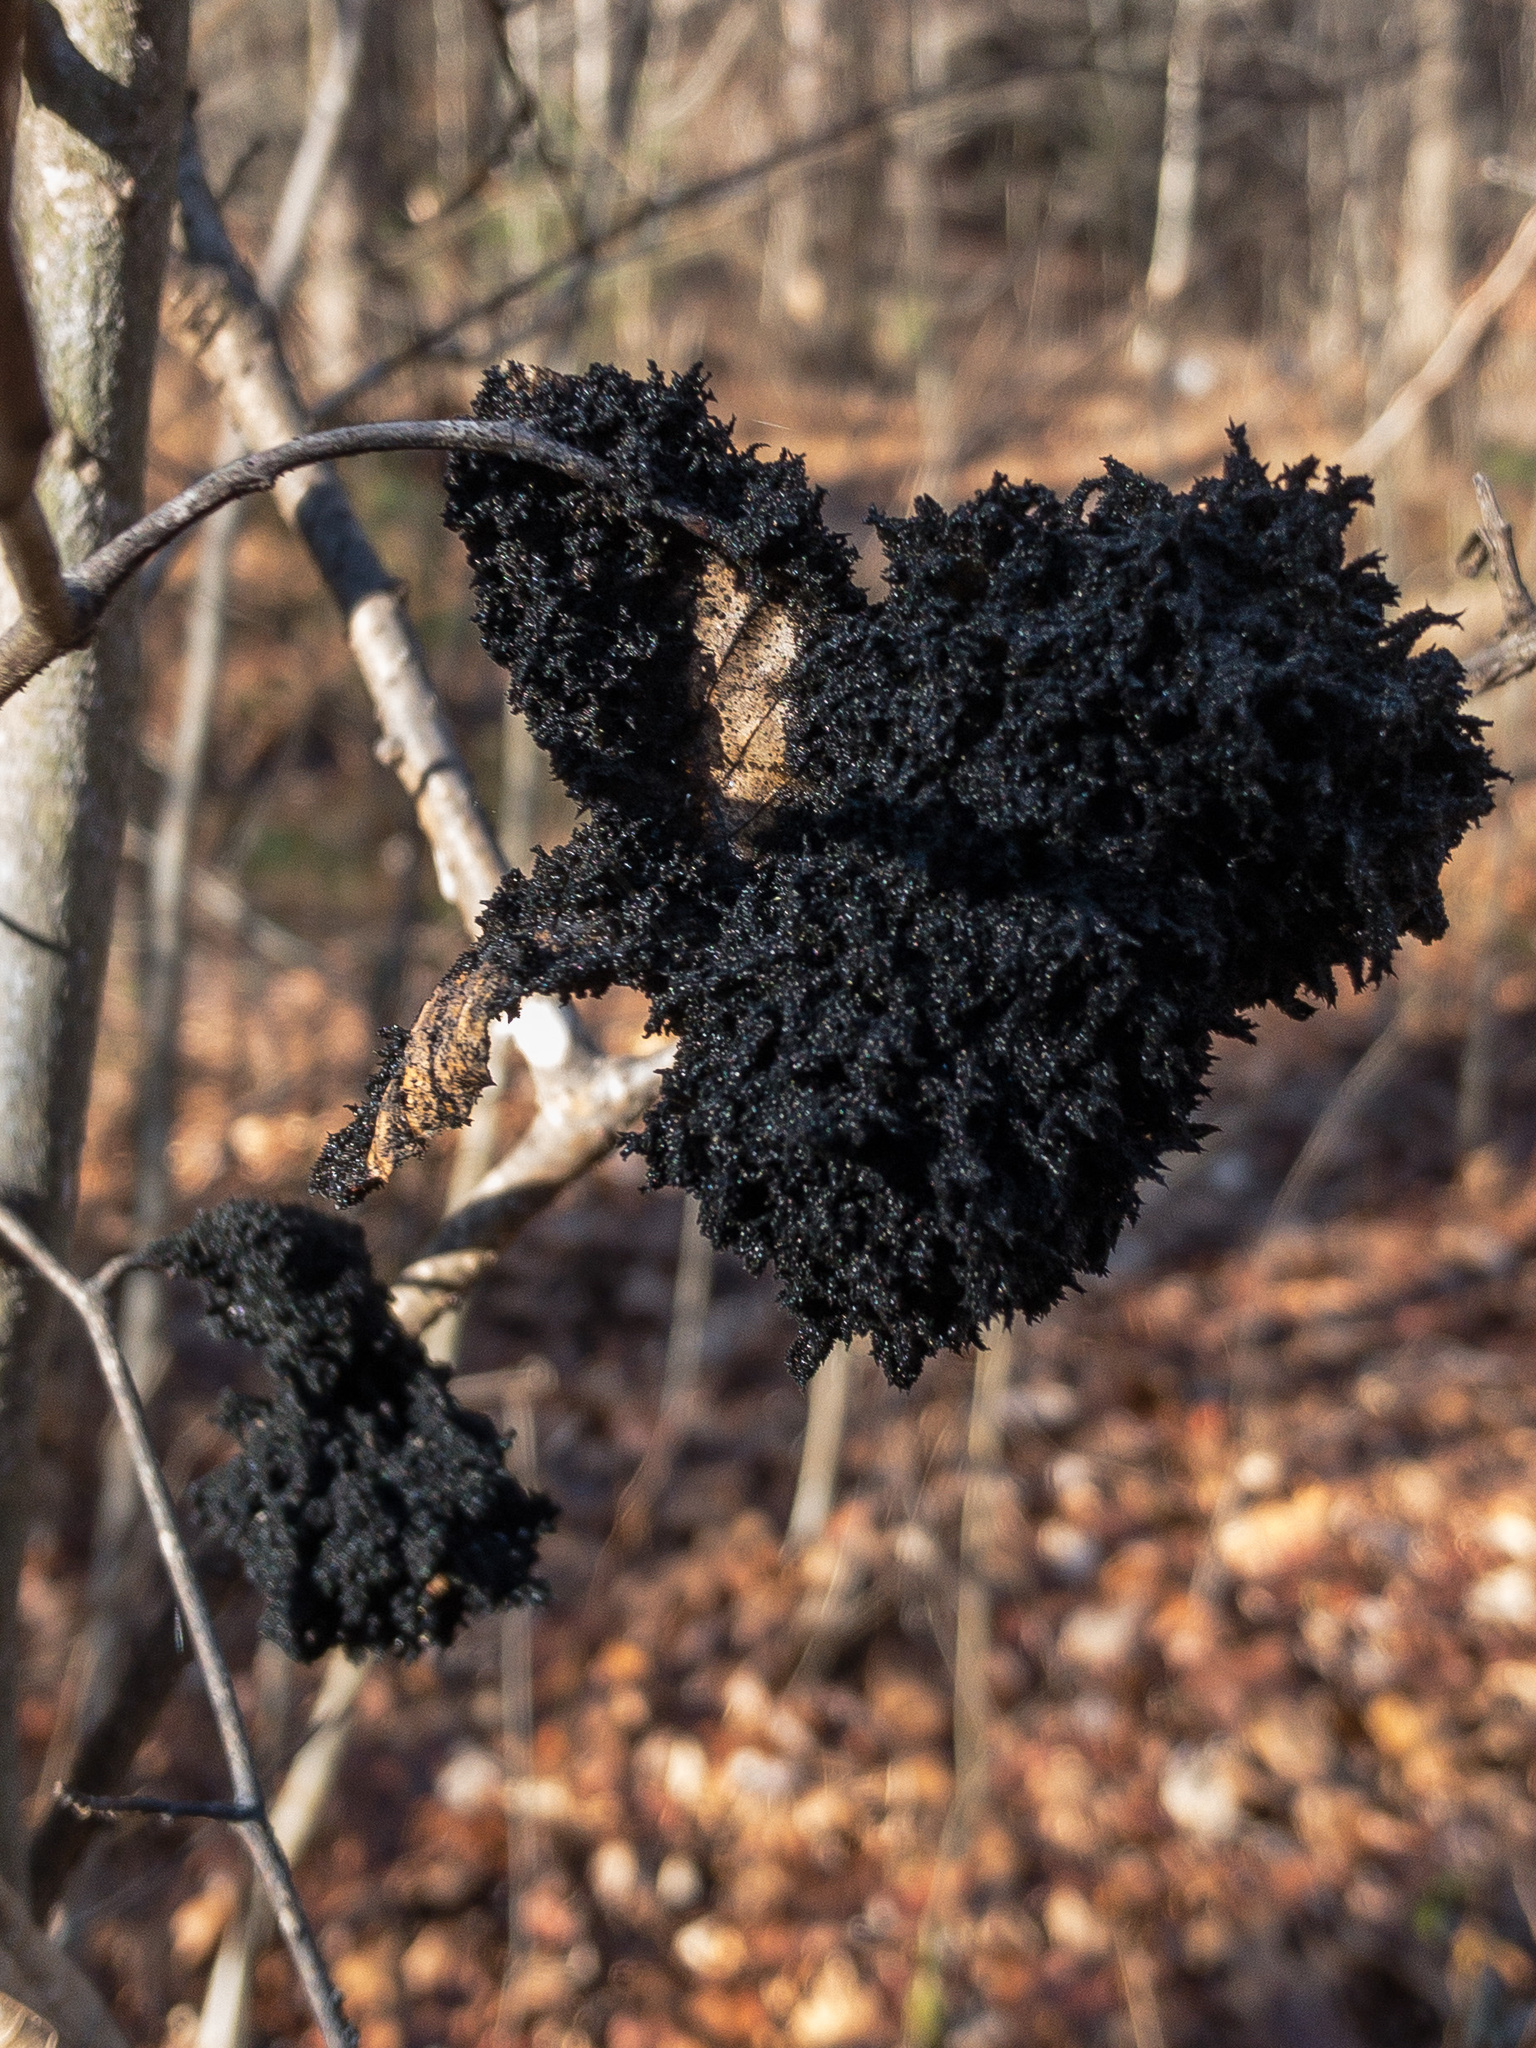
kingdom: Fungi
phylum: Ascomycota
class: Dothideomycetes
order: Capnodiales
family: Capnodiaceae
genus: Scorias
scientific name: Scorias spongiosa
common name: Black sooty mold
